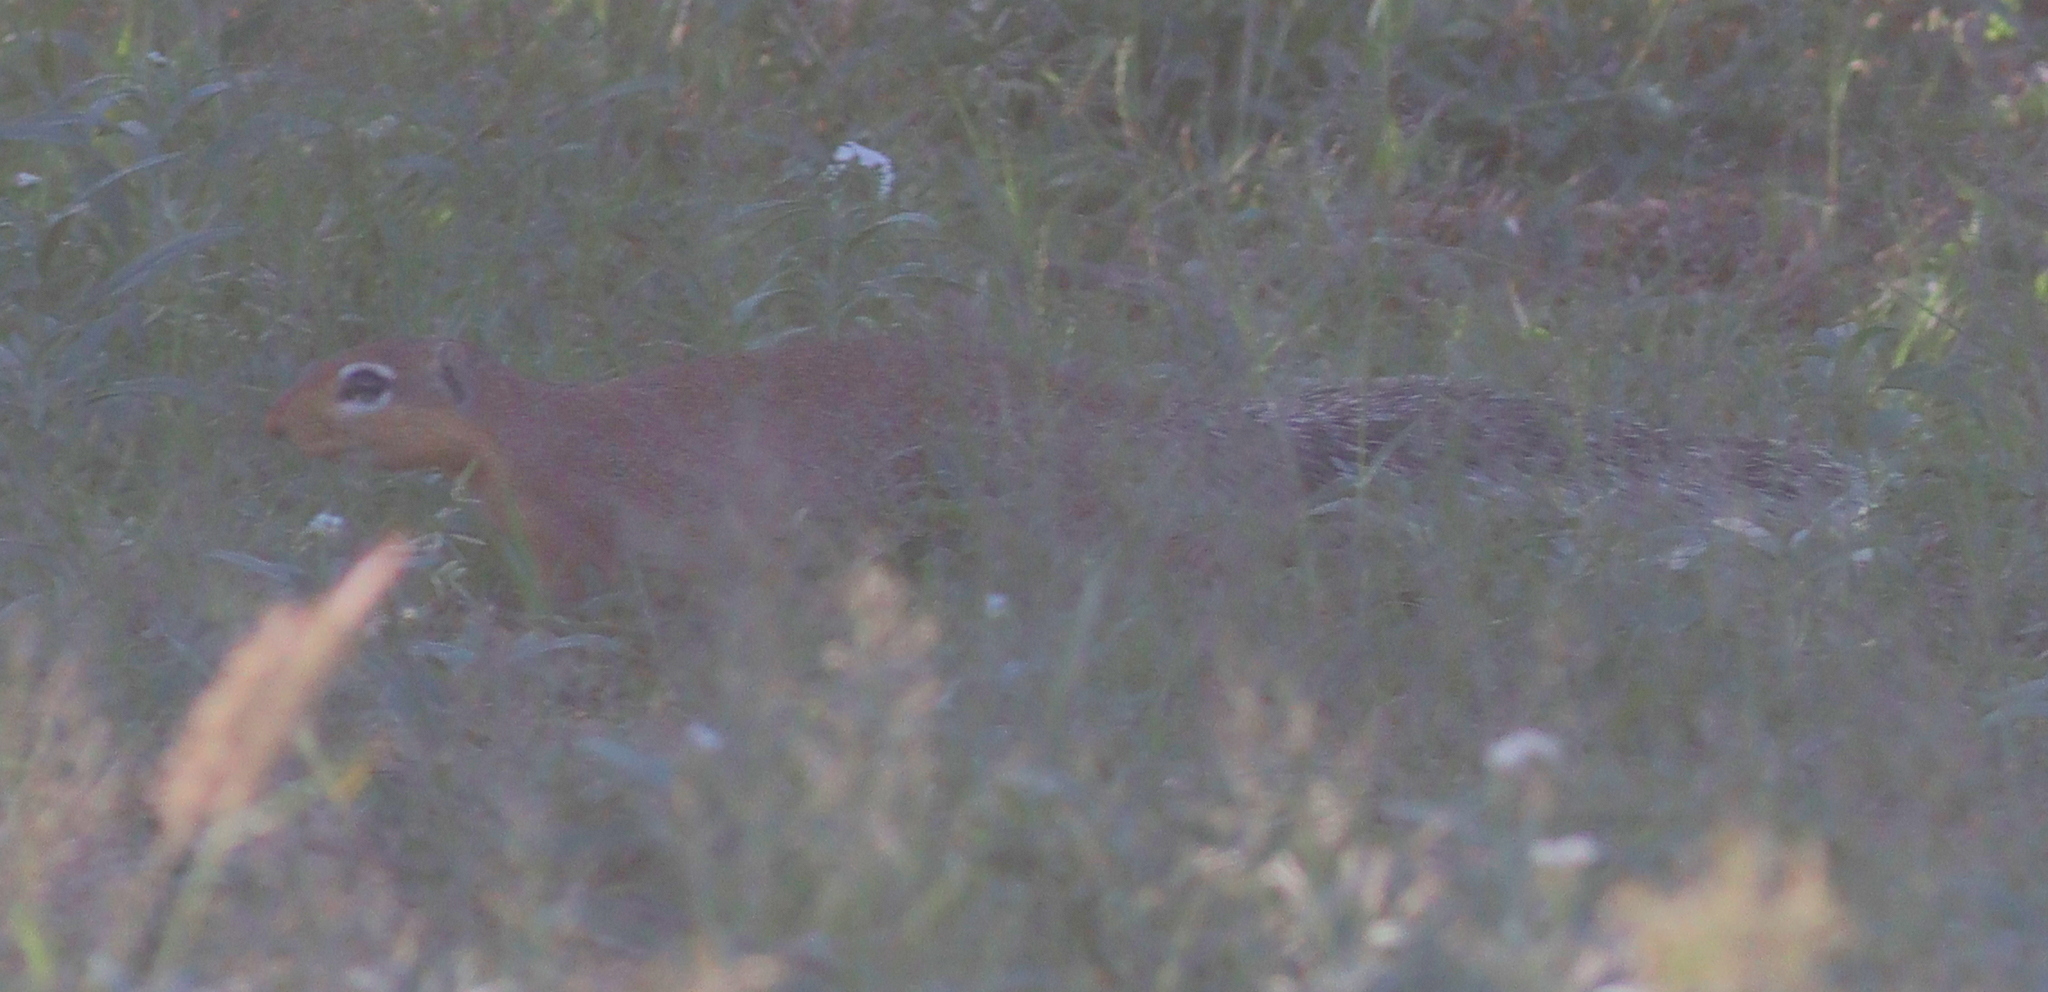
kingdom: Animalia
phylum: Chordata
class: Mammalia
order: Rodentia
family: Sciuridae
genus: Xerus
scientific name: Xerus rutilus
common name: Unstriped ground squirrel
